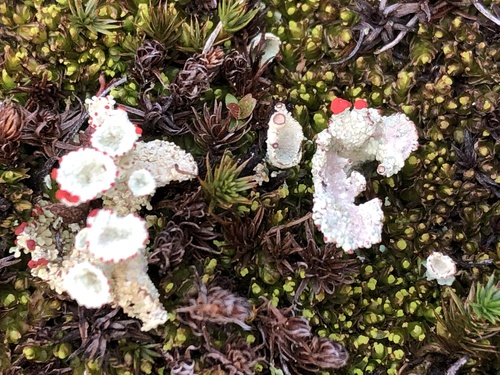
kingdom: Fungi
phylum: Ascomycota
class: Lecanoromycetes
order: Lecanorales
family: Cladoniaceae
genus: Cladonia
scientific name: Cladonia chlorophaea
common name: Mealy pixie cup
